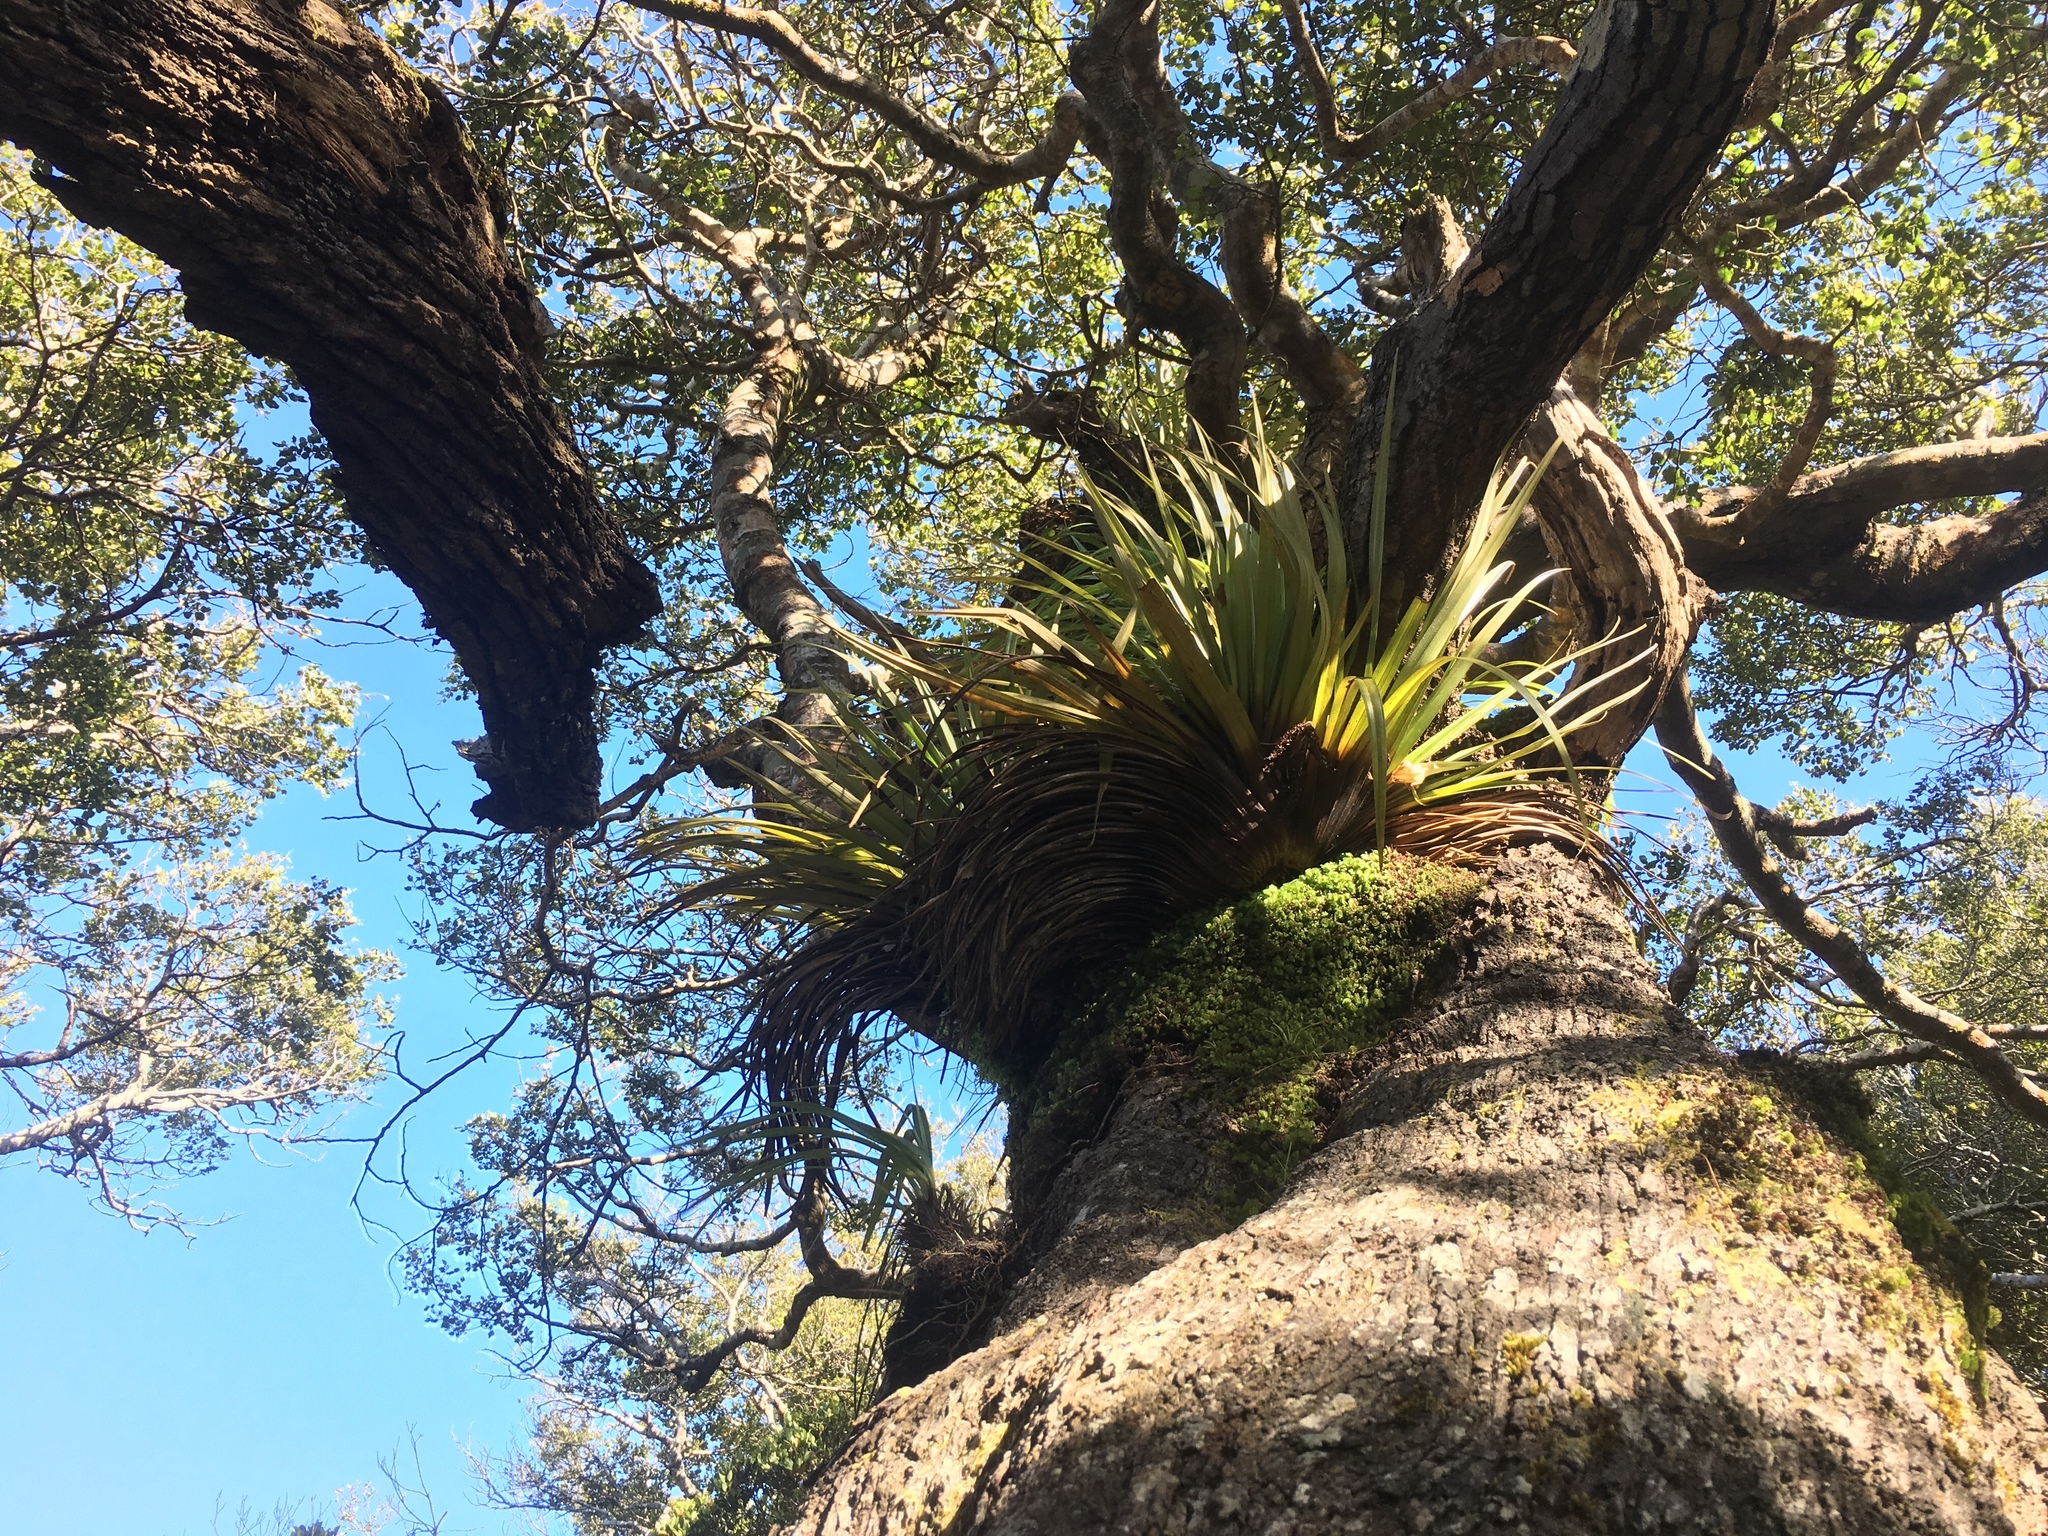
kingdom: Plantae
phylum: Tracheophyta
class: Liliopsida
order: Asparagales
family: Asteliaceae
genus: Astelia
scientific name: Astelia hastata
